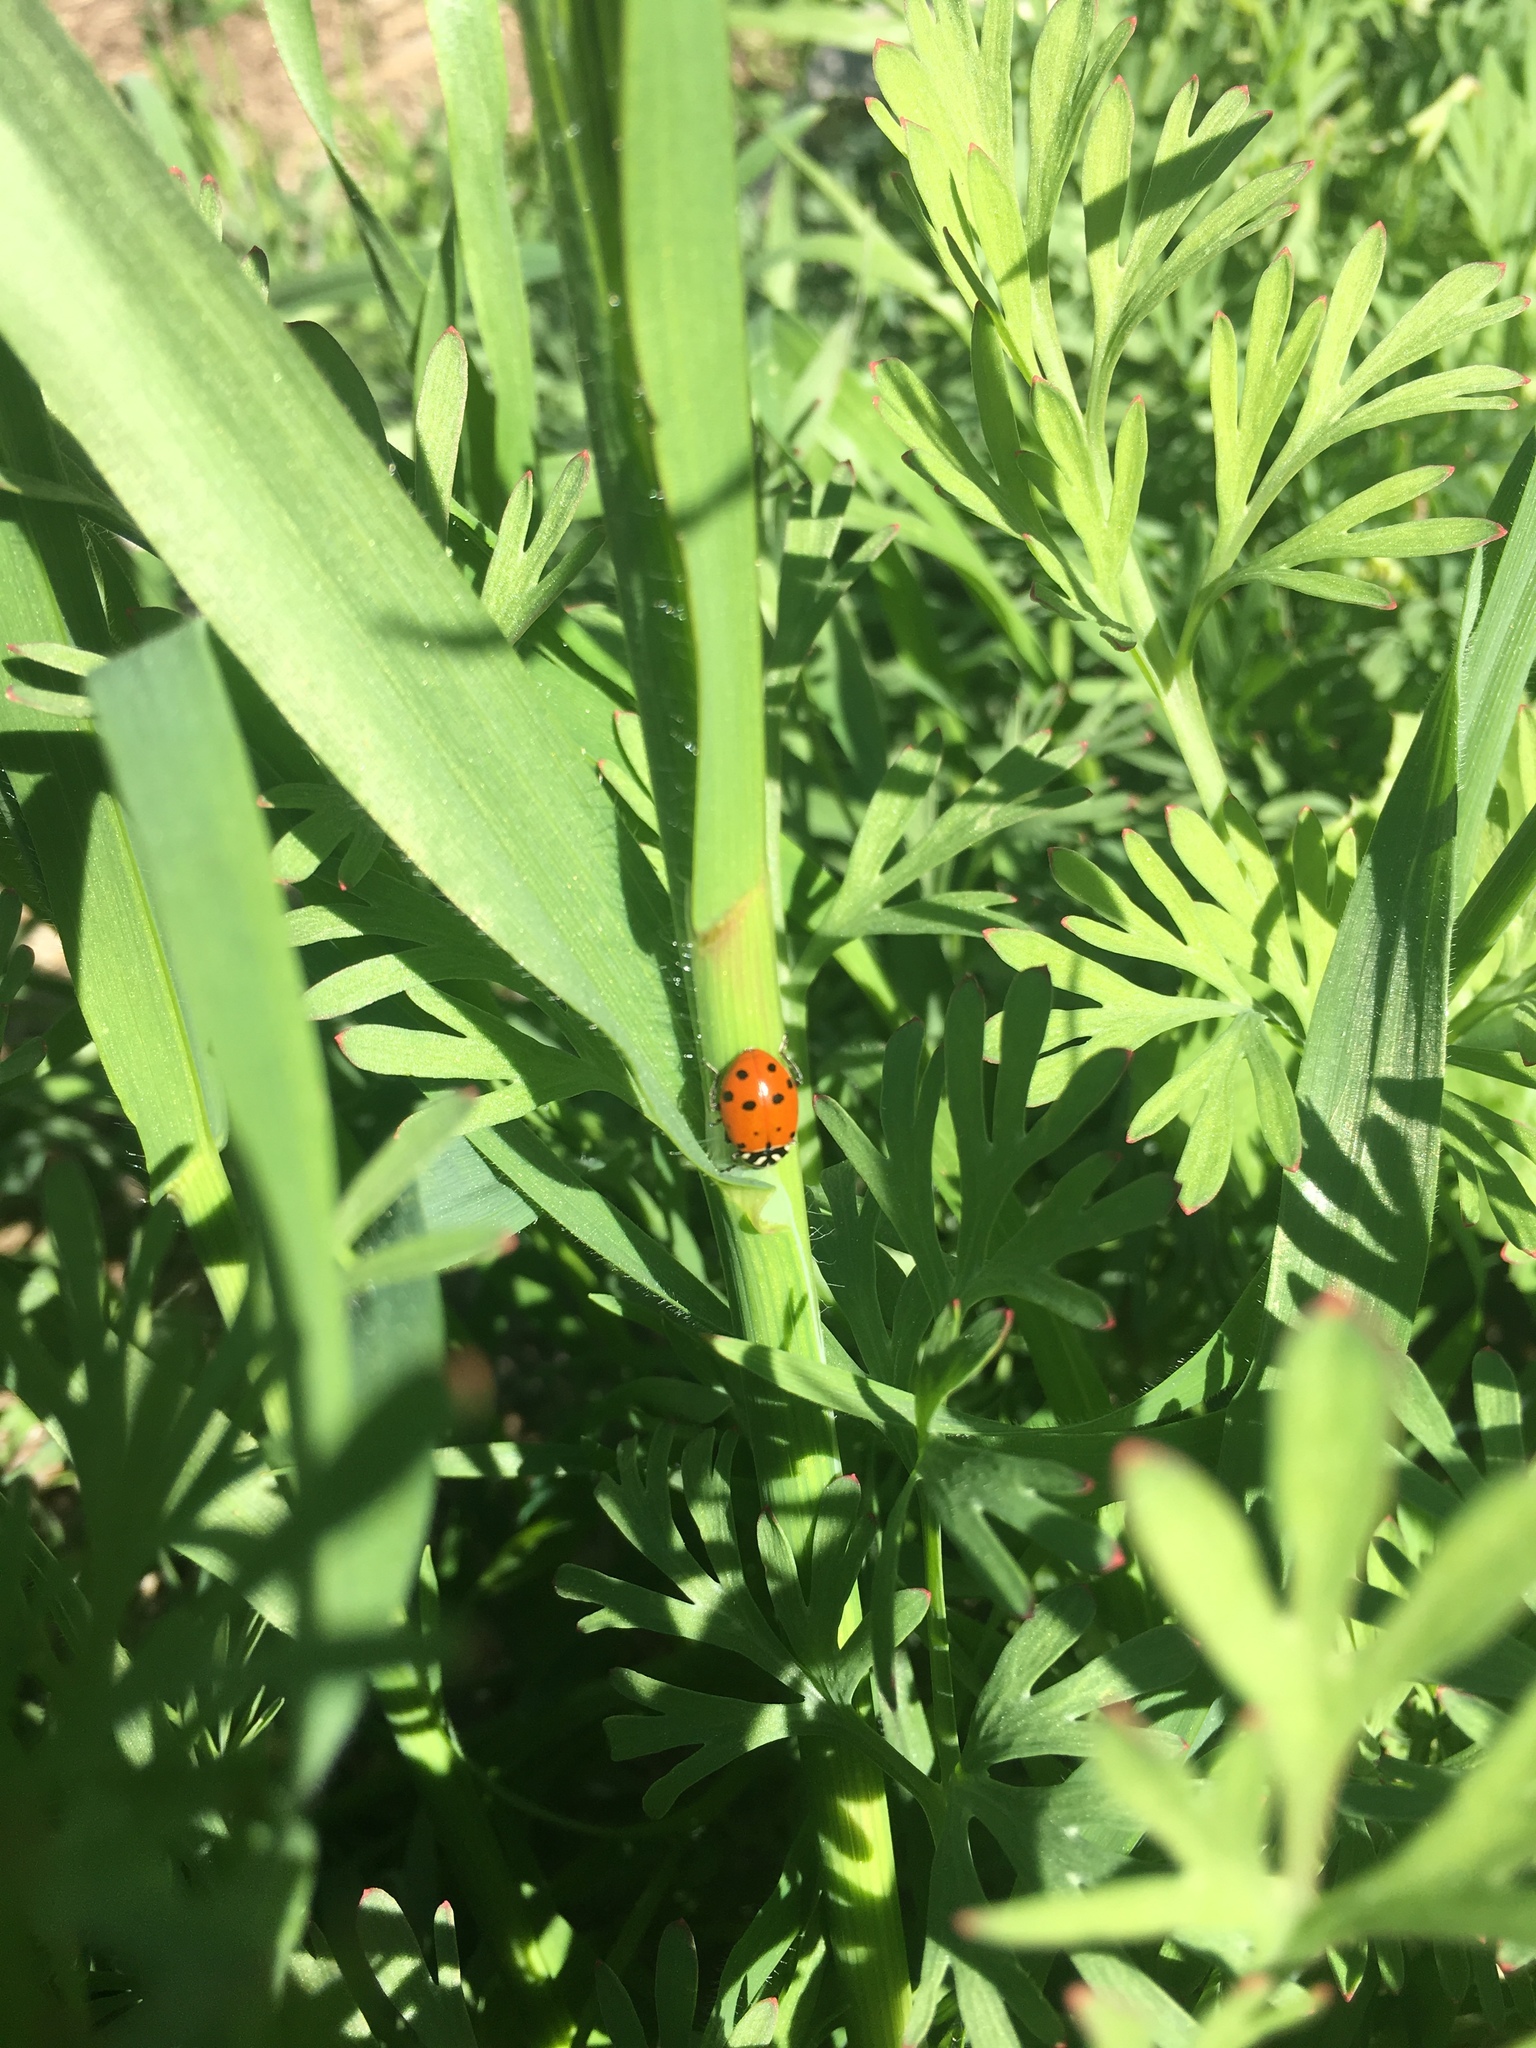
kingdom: Animalia
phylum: Arthropoda
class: Insecta
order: Coleoptera
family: Coccinellidae
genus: Hippodamia
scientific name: Hippodamia convergens
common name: Convergent lady beetle
